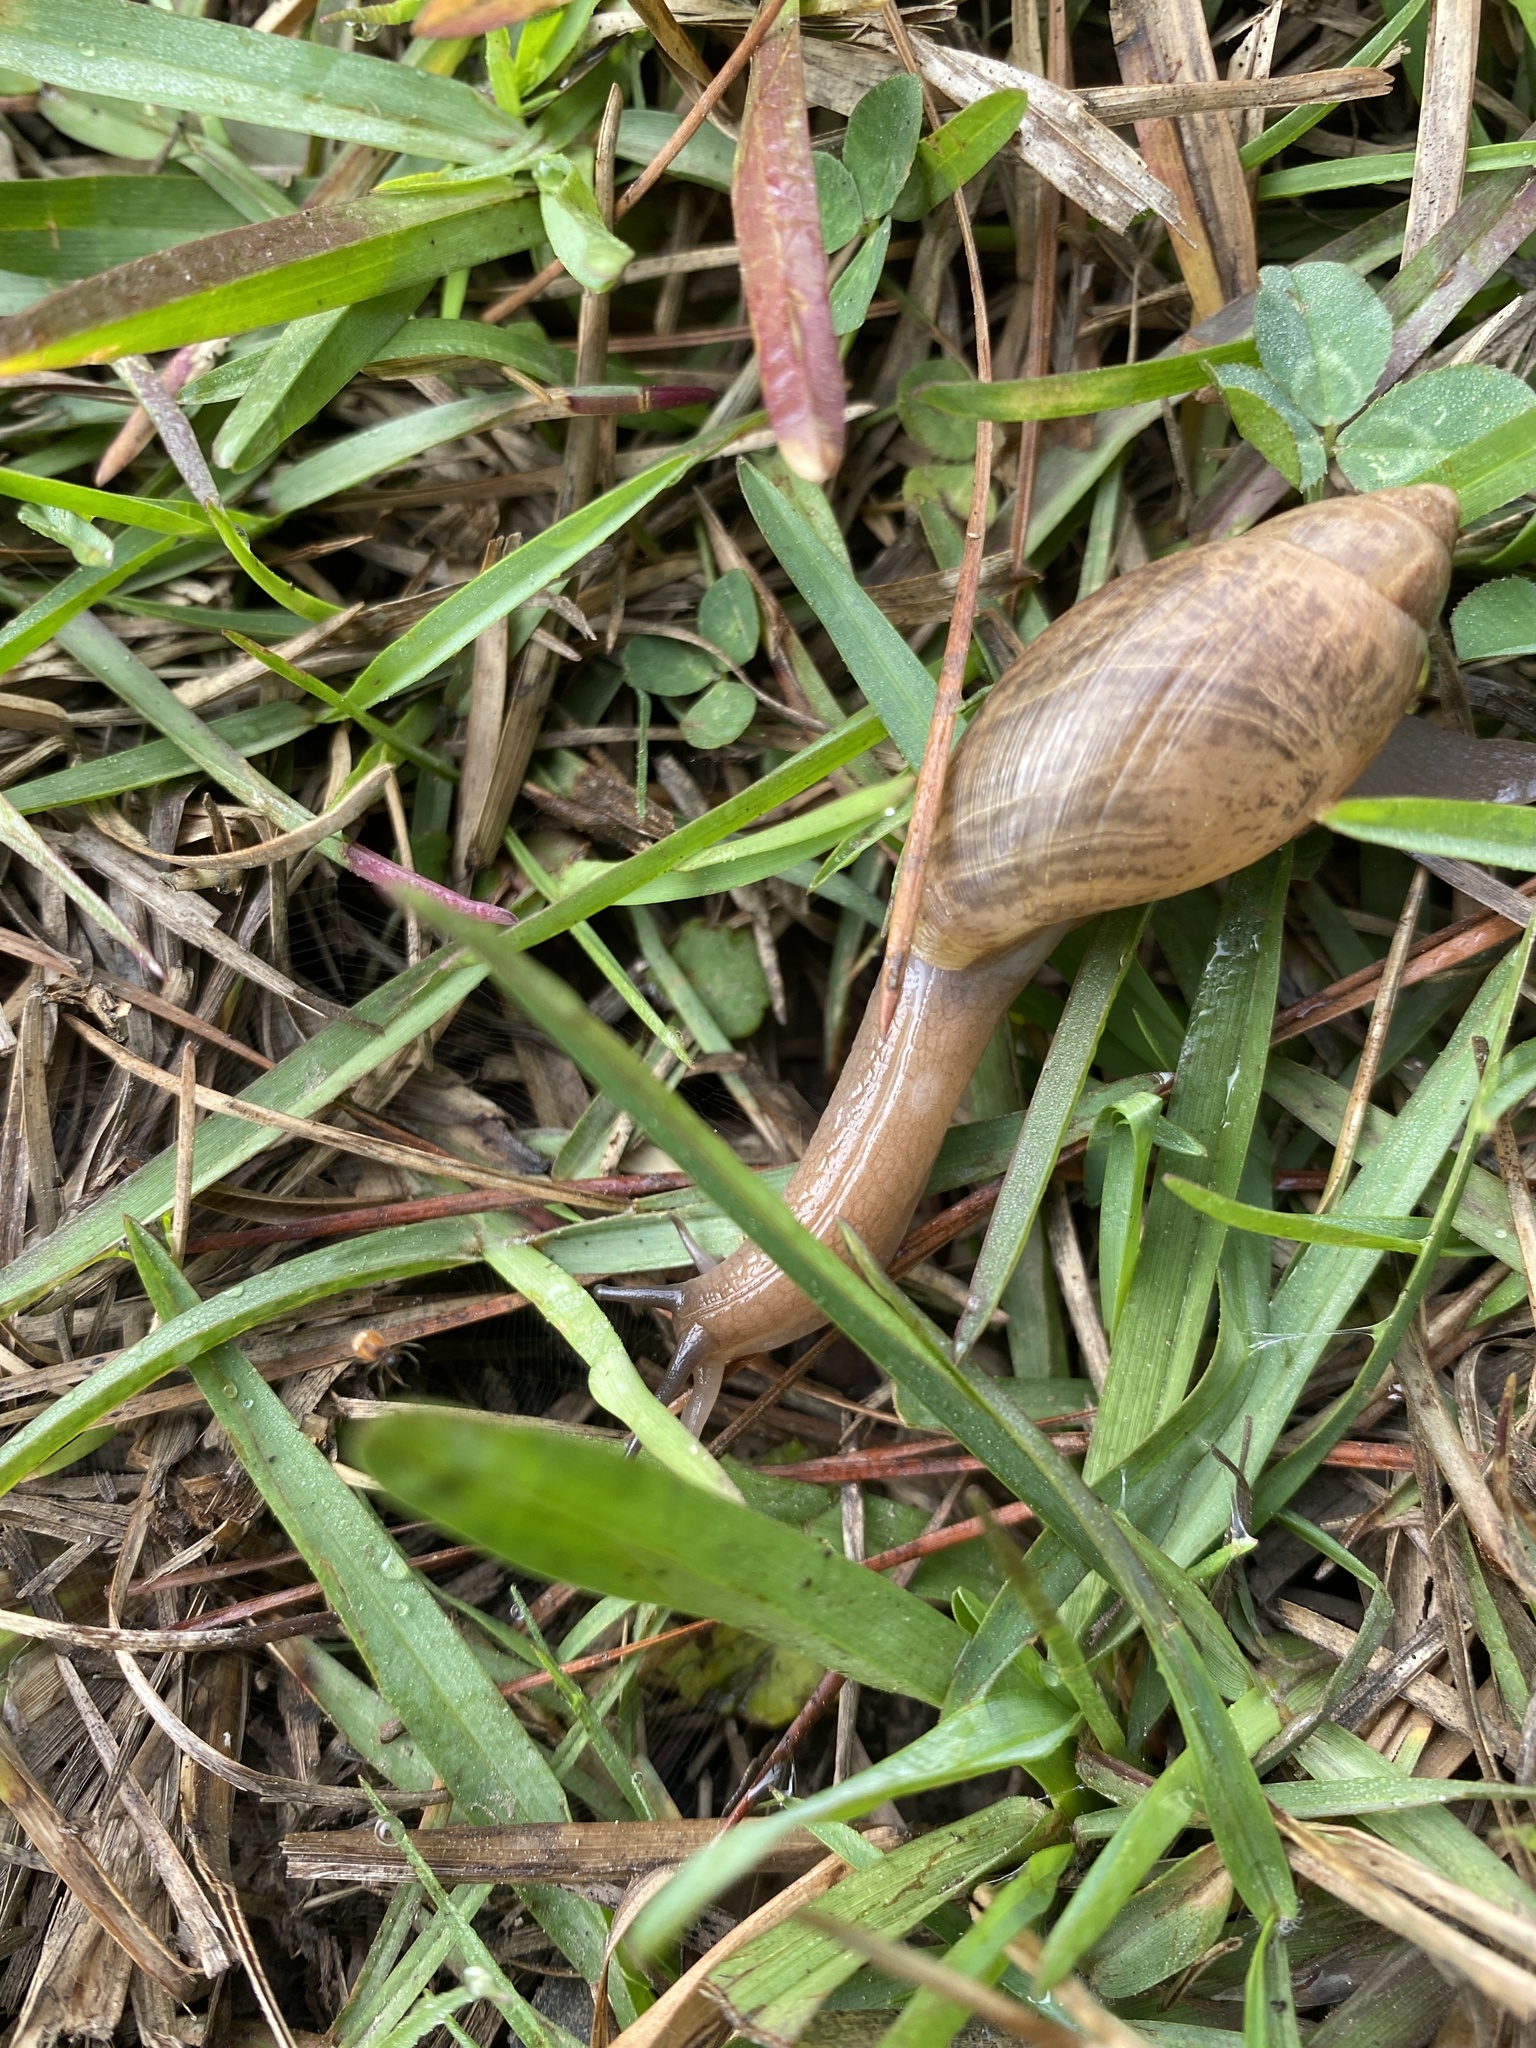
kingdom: Animalia
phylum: Mollusca
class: Gastropoda
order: Stylommatophora
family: Spiraxidae
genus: Euglandina
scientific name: Euglandina rosea
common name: Rosy wolfsnail
